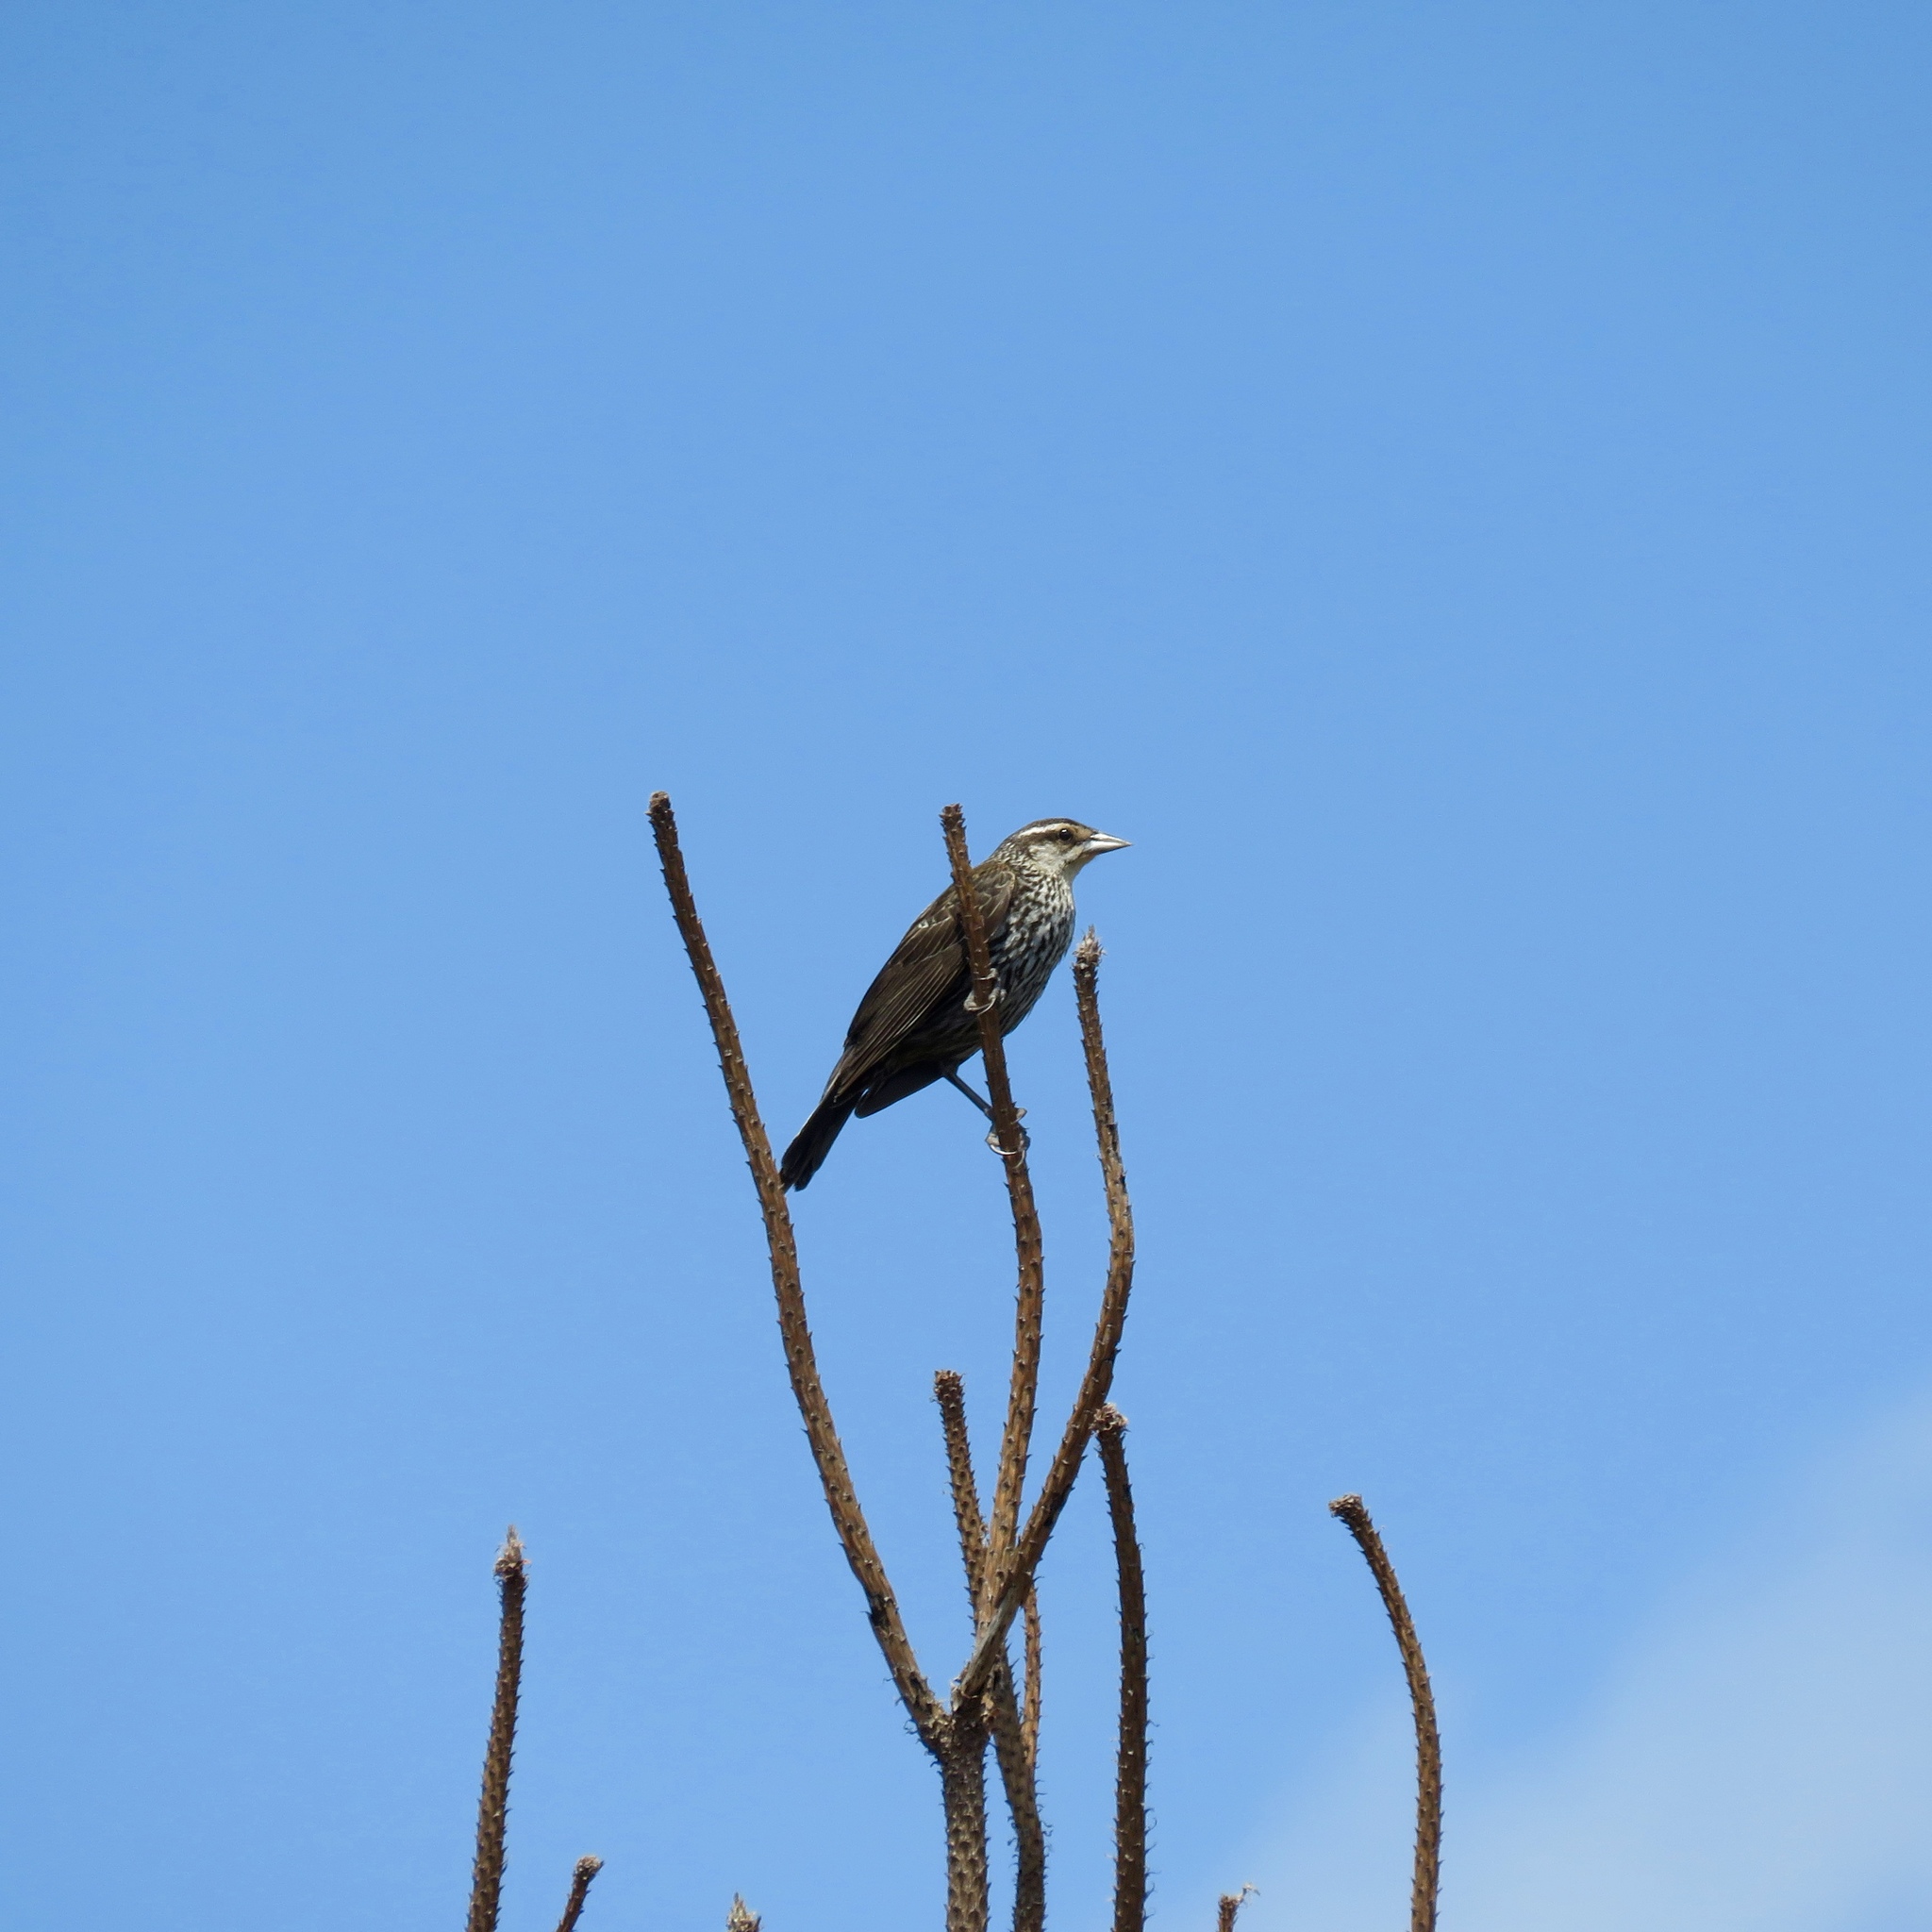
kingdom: Animalia
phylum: Chordata
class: Aves
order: Passeriformes
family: Icteridae
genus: Agelaius
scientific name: Agelaius phoeniceus
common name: Red-winged blackbird
